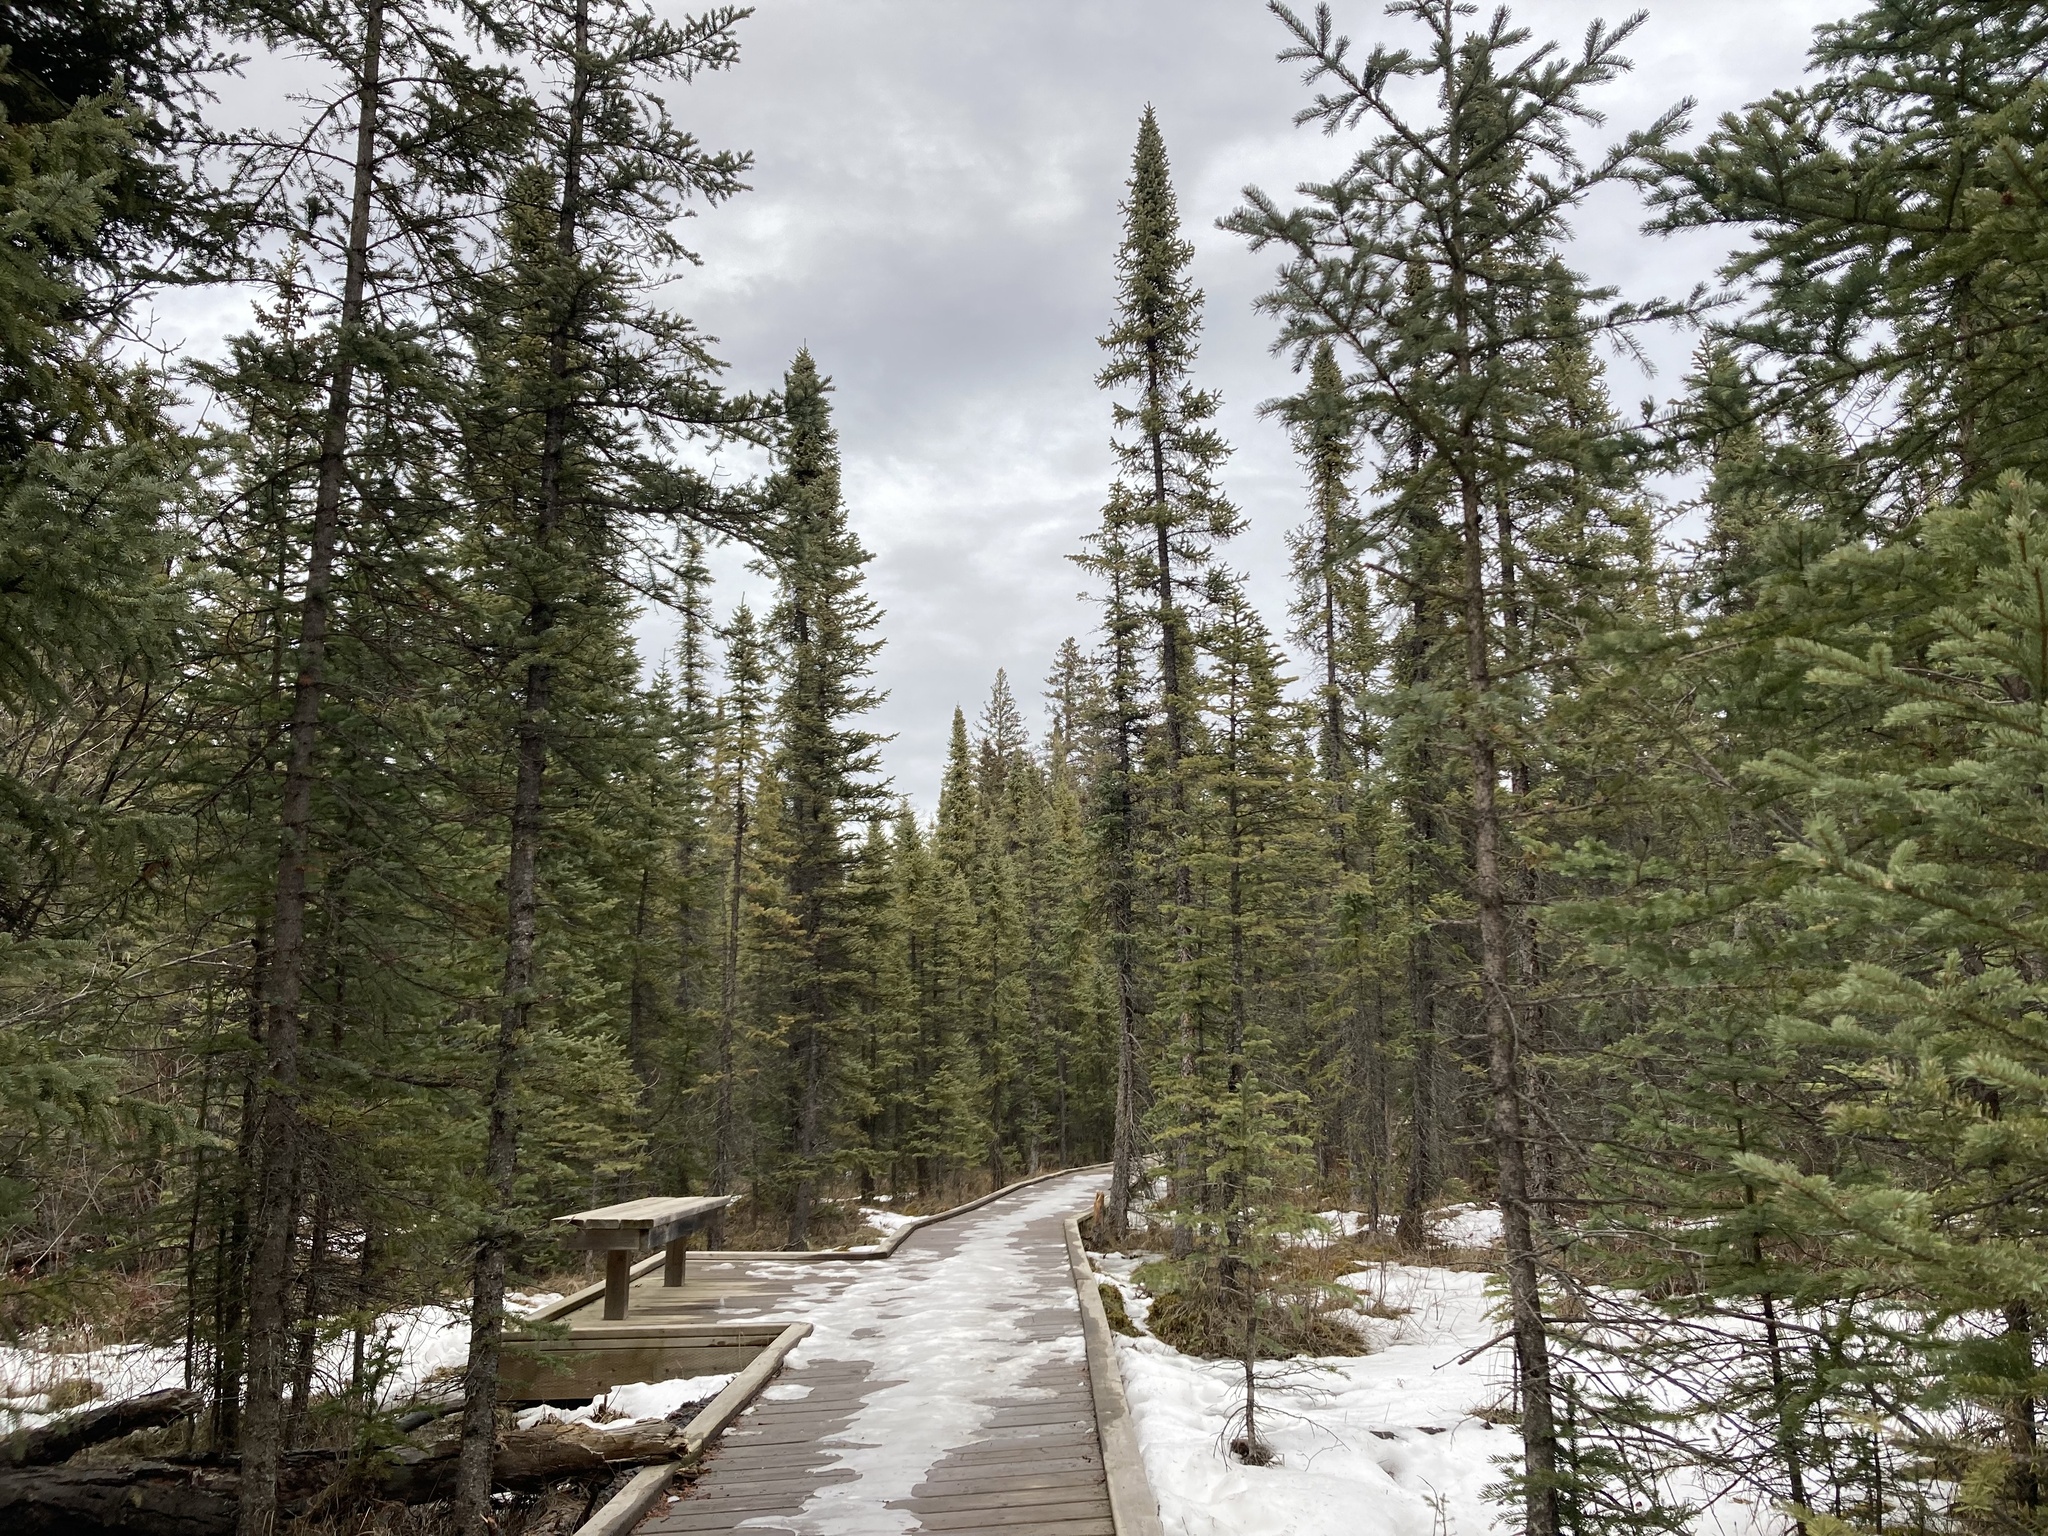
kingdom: Plantae
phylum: Tracheophyta
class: Pinopsida
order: Pinales
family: Pinaceae
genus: Picea
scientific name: Picea mariana
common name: Black spruce
